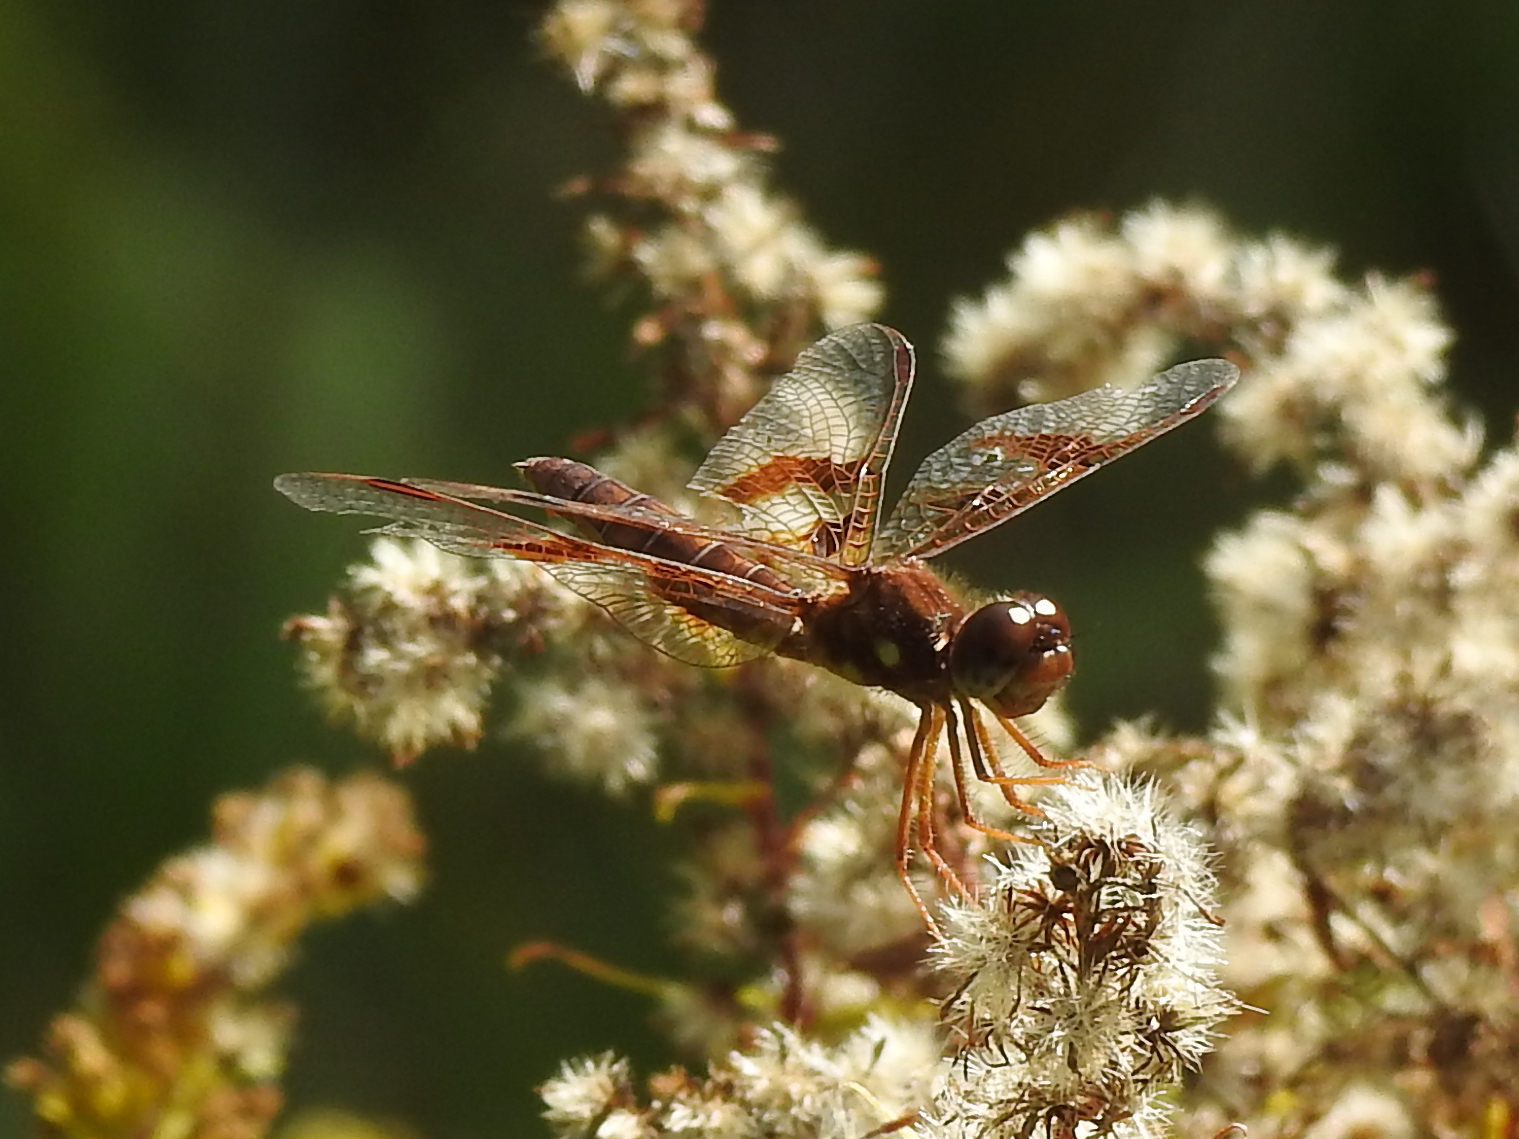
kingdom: Animalia
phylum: Arthropoda
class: Insecta
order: Odonata
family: Libellulidae
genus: Perithemis
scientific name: Perithemis tenera
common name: Eastern amberwing
